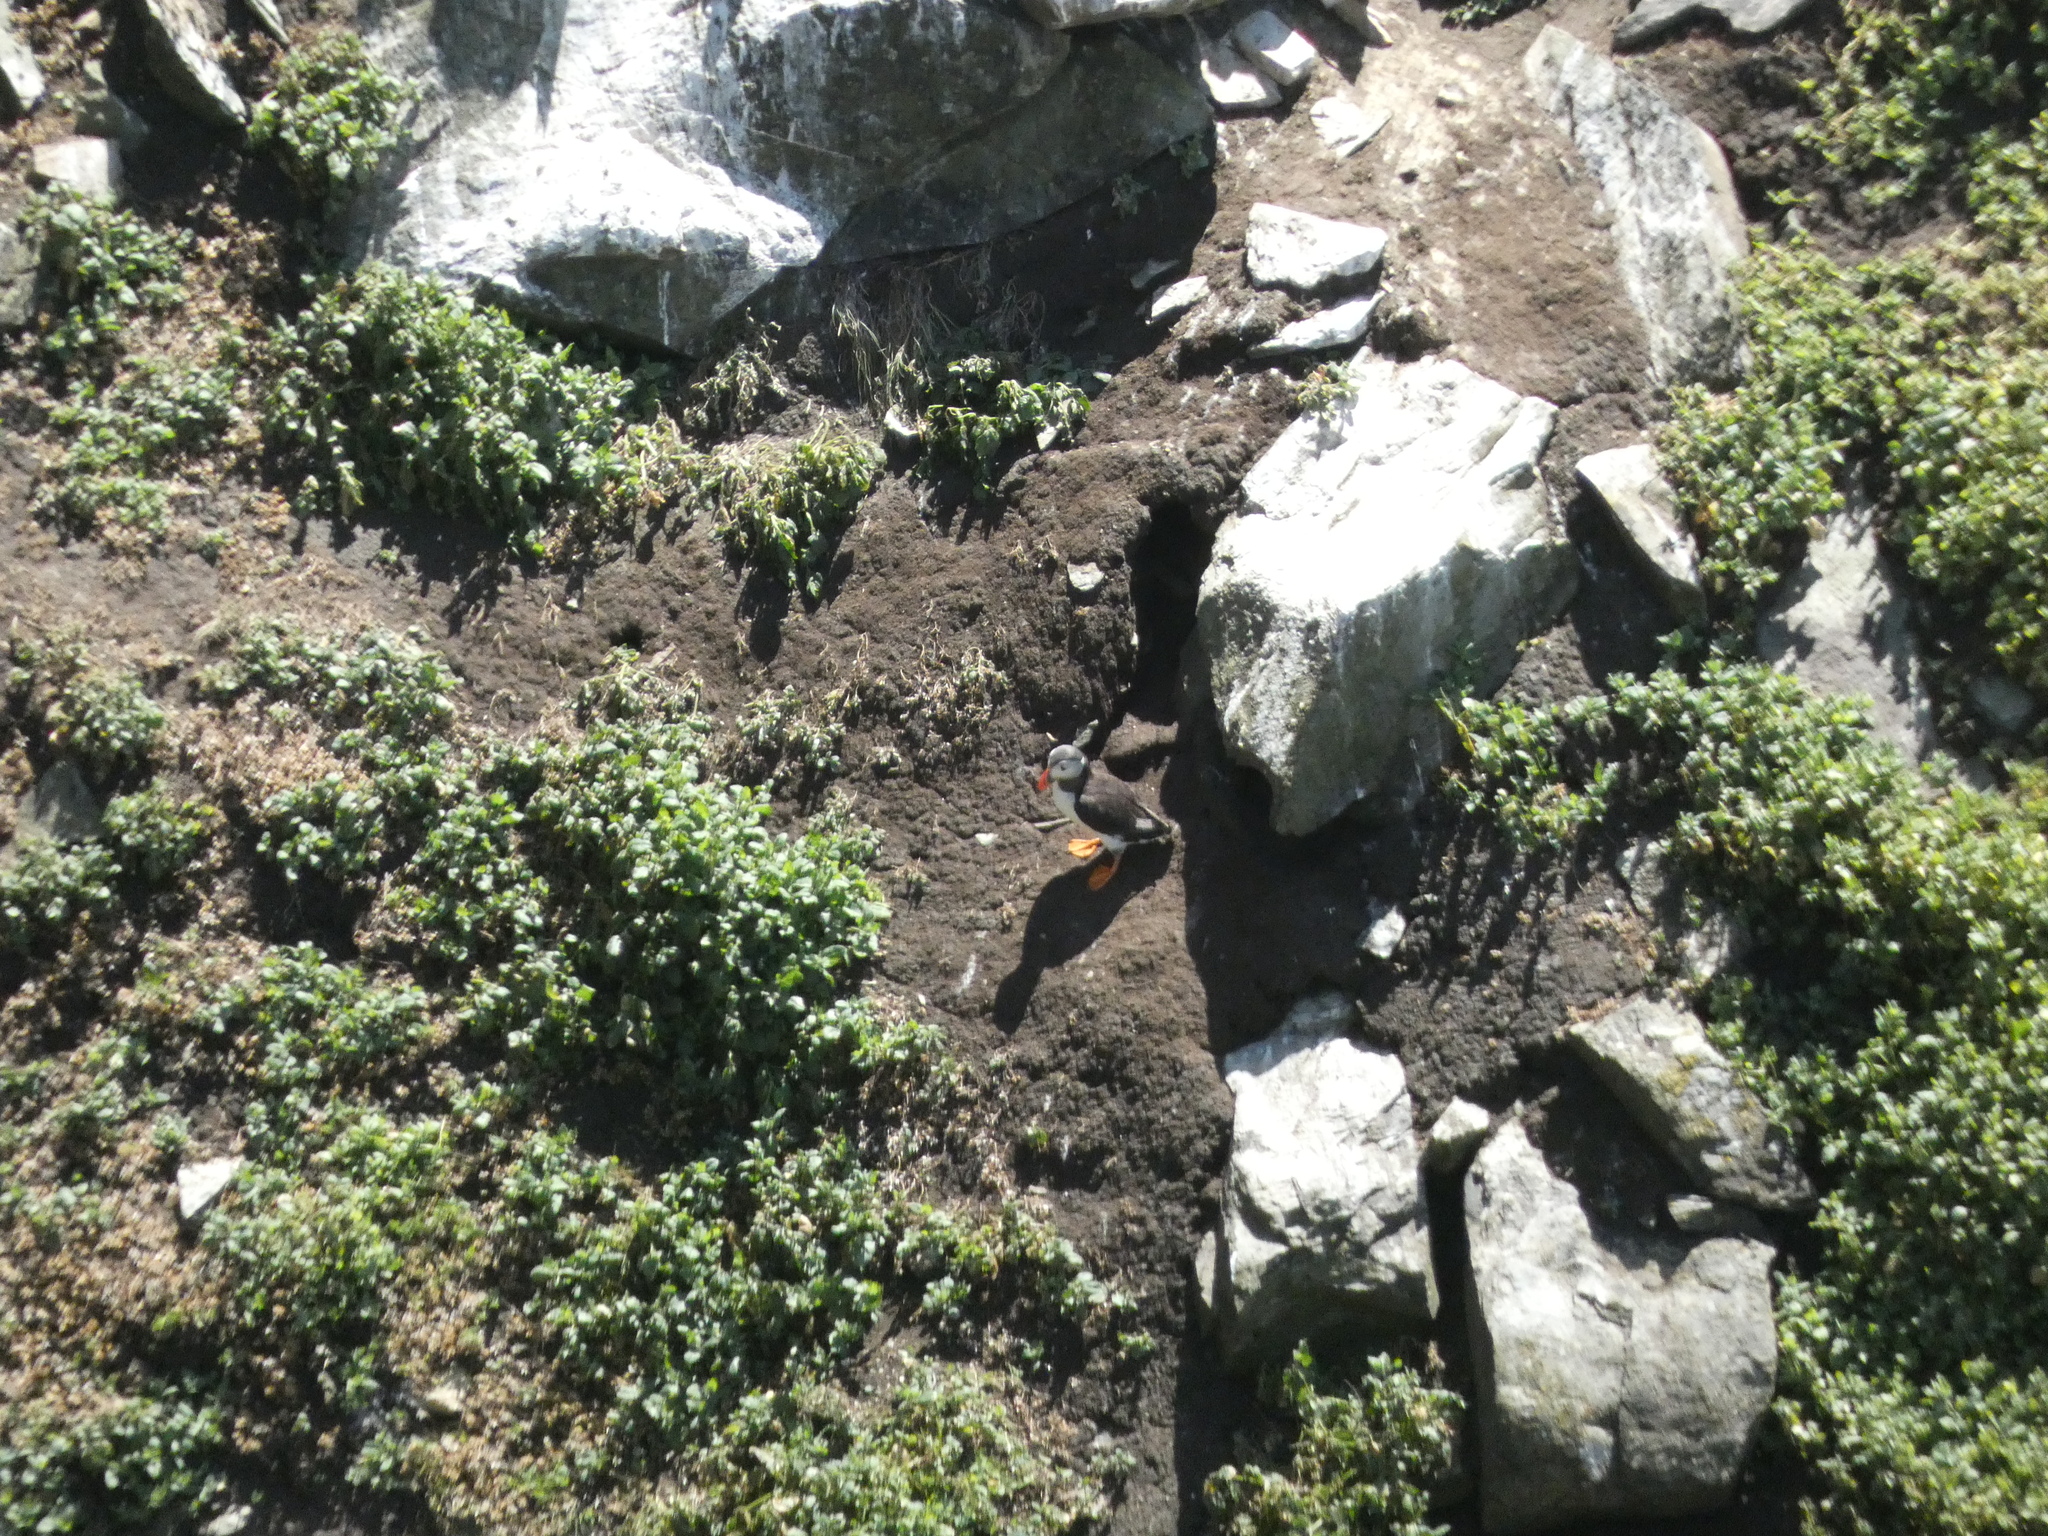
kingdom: Animalia
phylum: Chordata
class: Aves
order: Charadriiformes
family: Alcidae
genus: Fratercula
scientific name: Fratercula arctica
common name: Atlantic puffin
